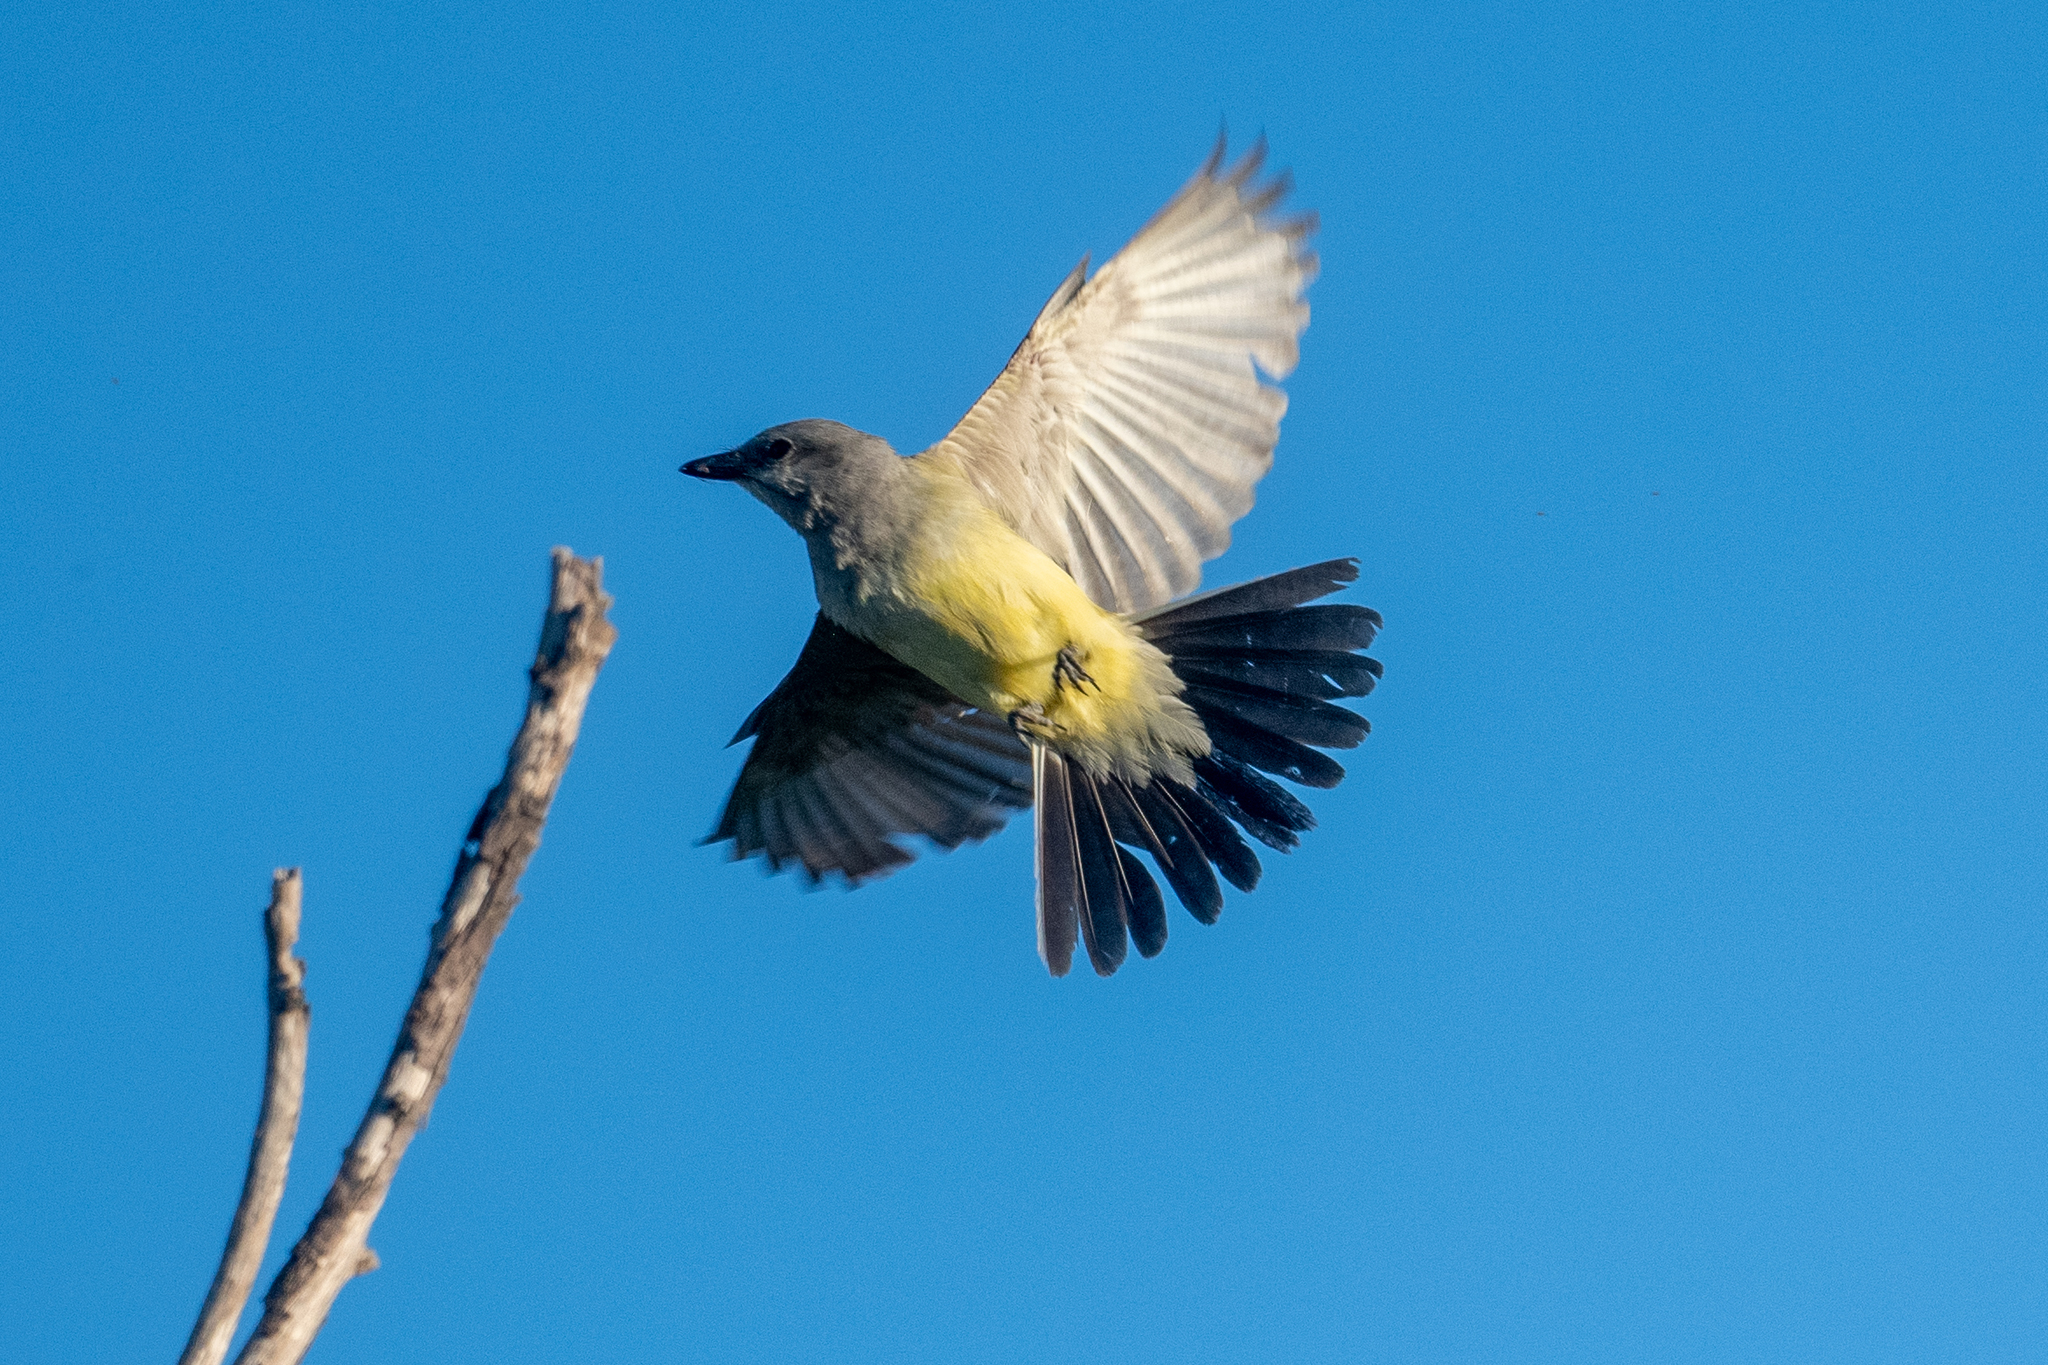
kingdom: Animalia
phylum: Chordata
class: Aves
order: Passeriformes
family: Tyrannidae
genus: Tyrannus
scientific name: Tyrannus verticalis
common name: Western kingbird
